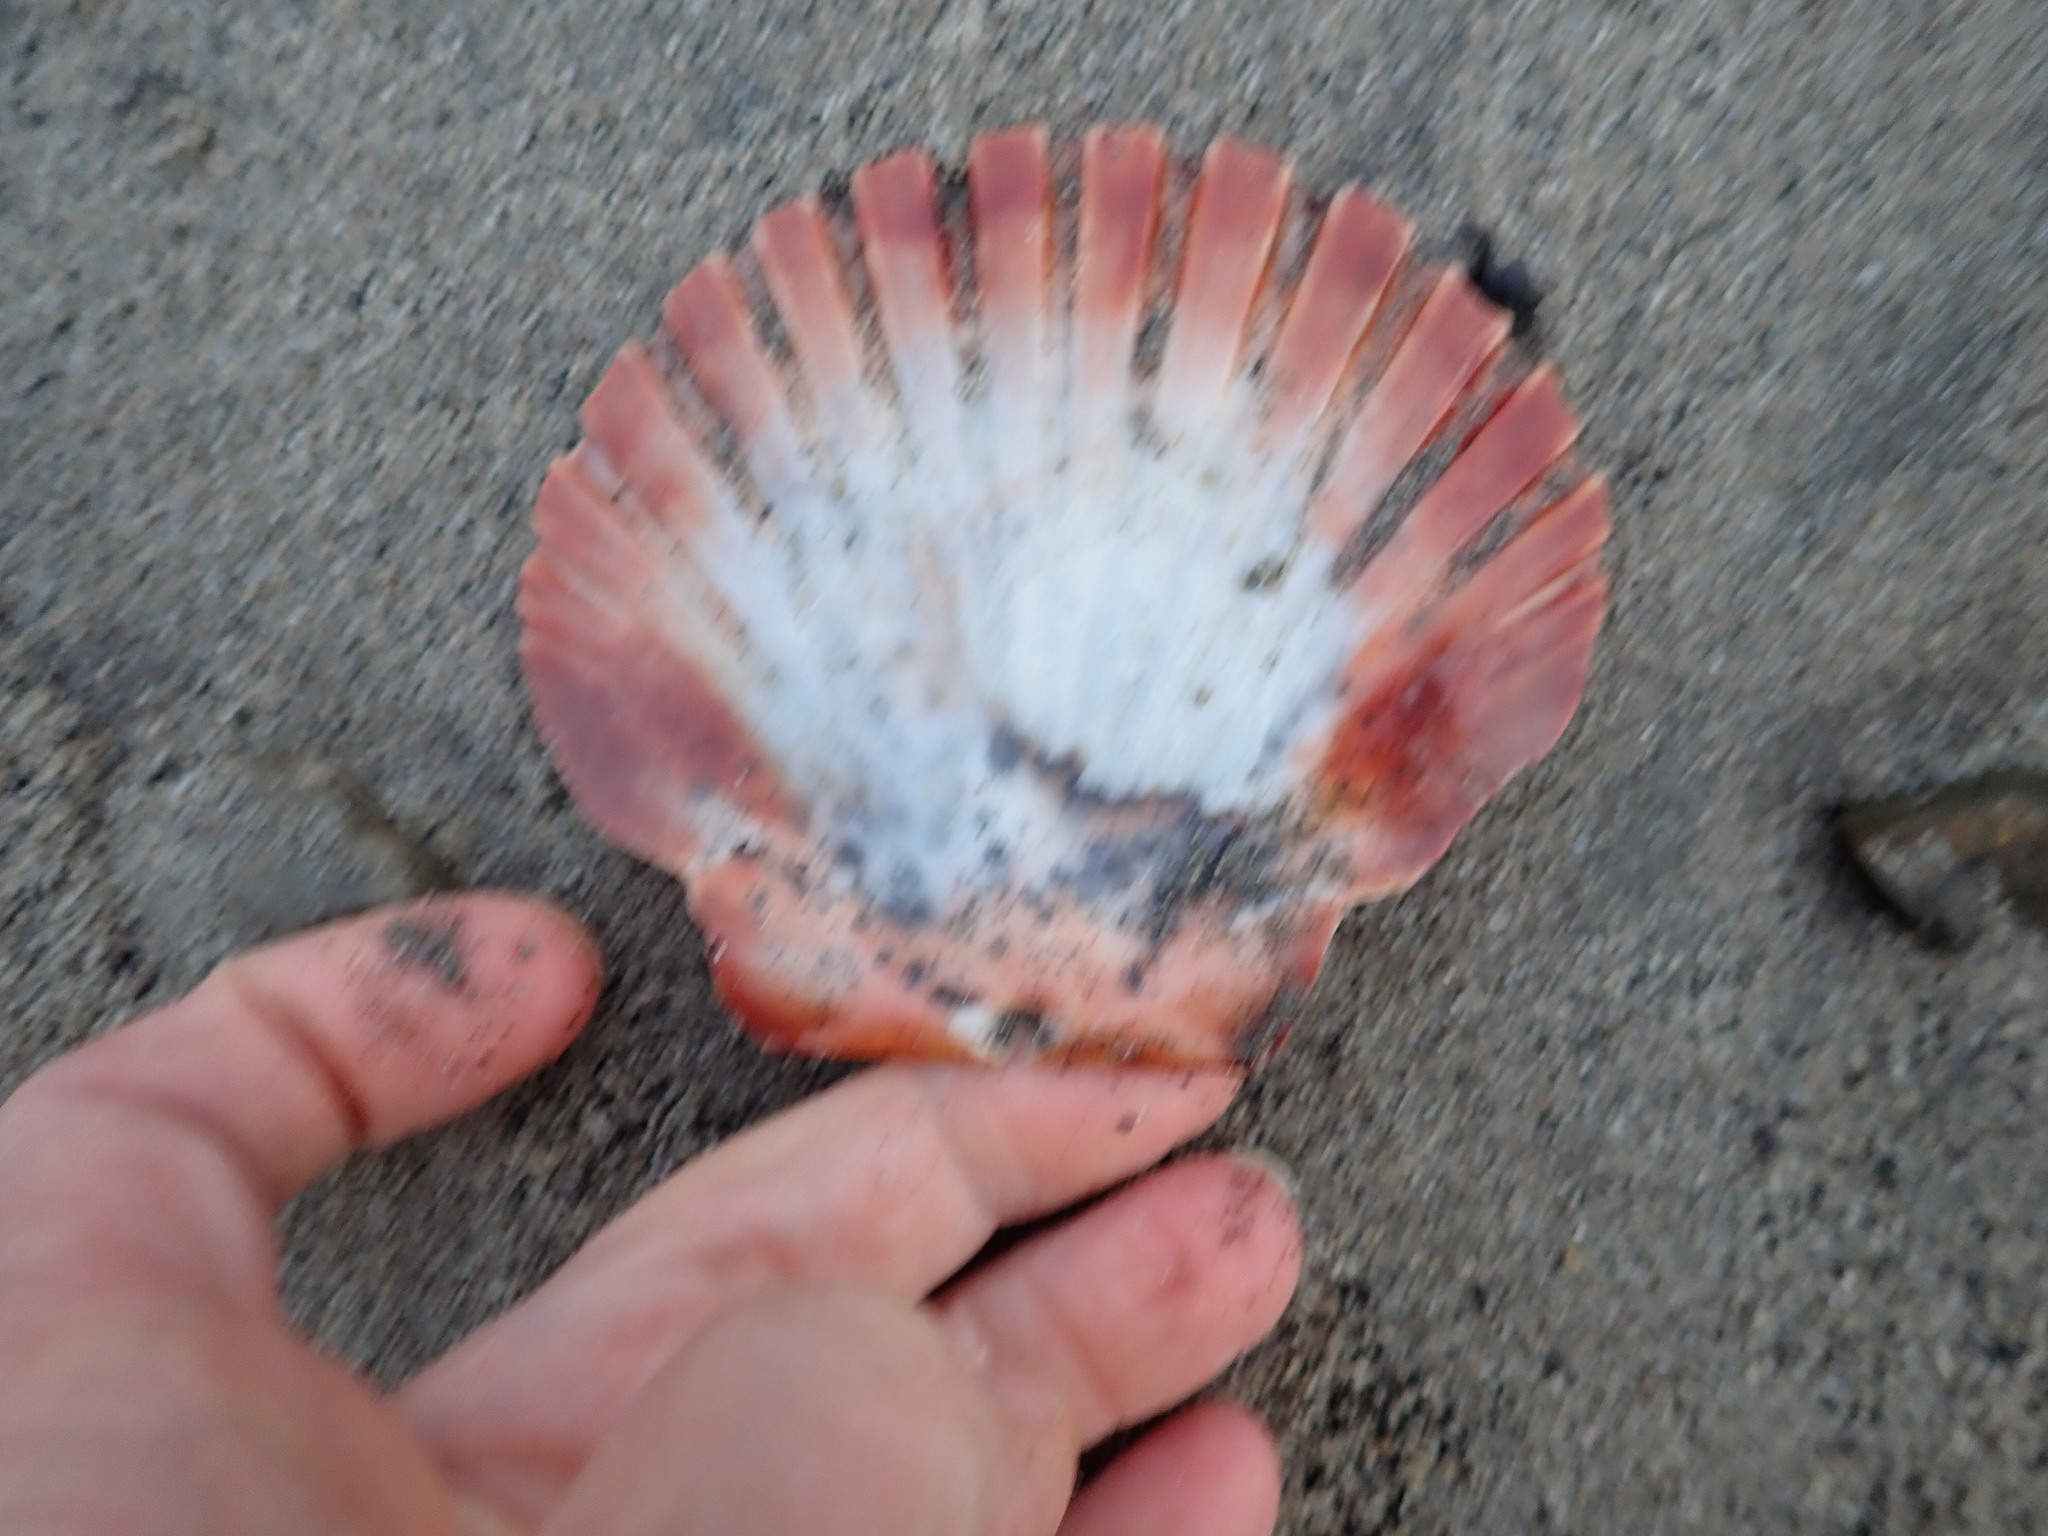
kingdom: Animalia
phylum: Mollusca
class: Bivalvia
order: Pectinida
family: Pectinidae
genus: Pecten
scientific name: Pecten novaezelandiae
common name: New zealand scallop
